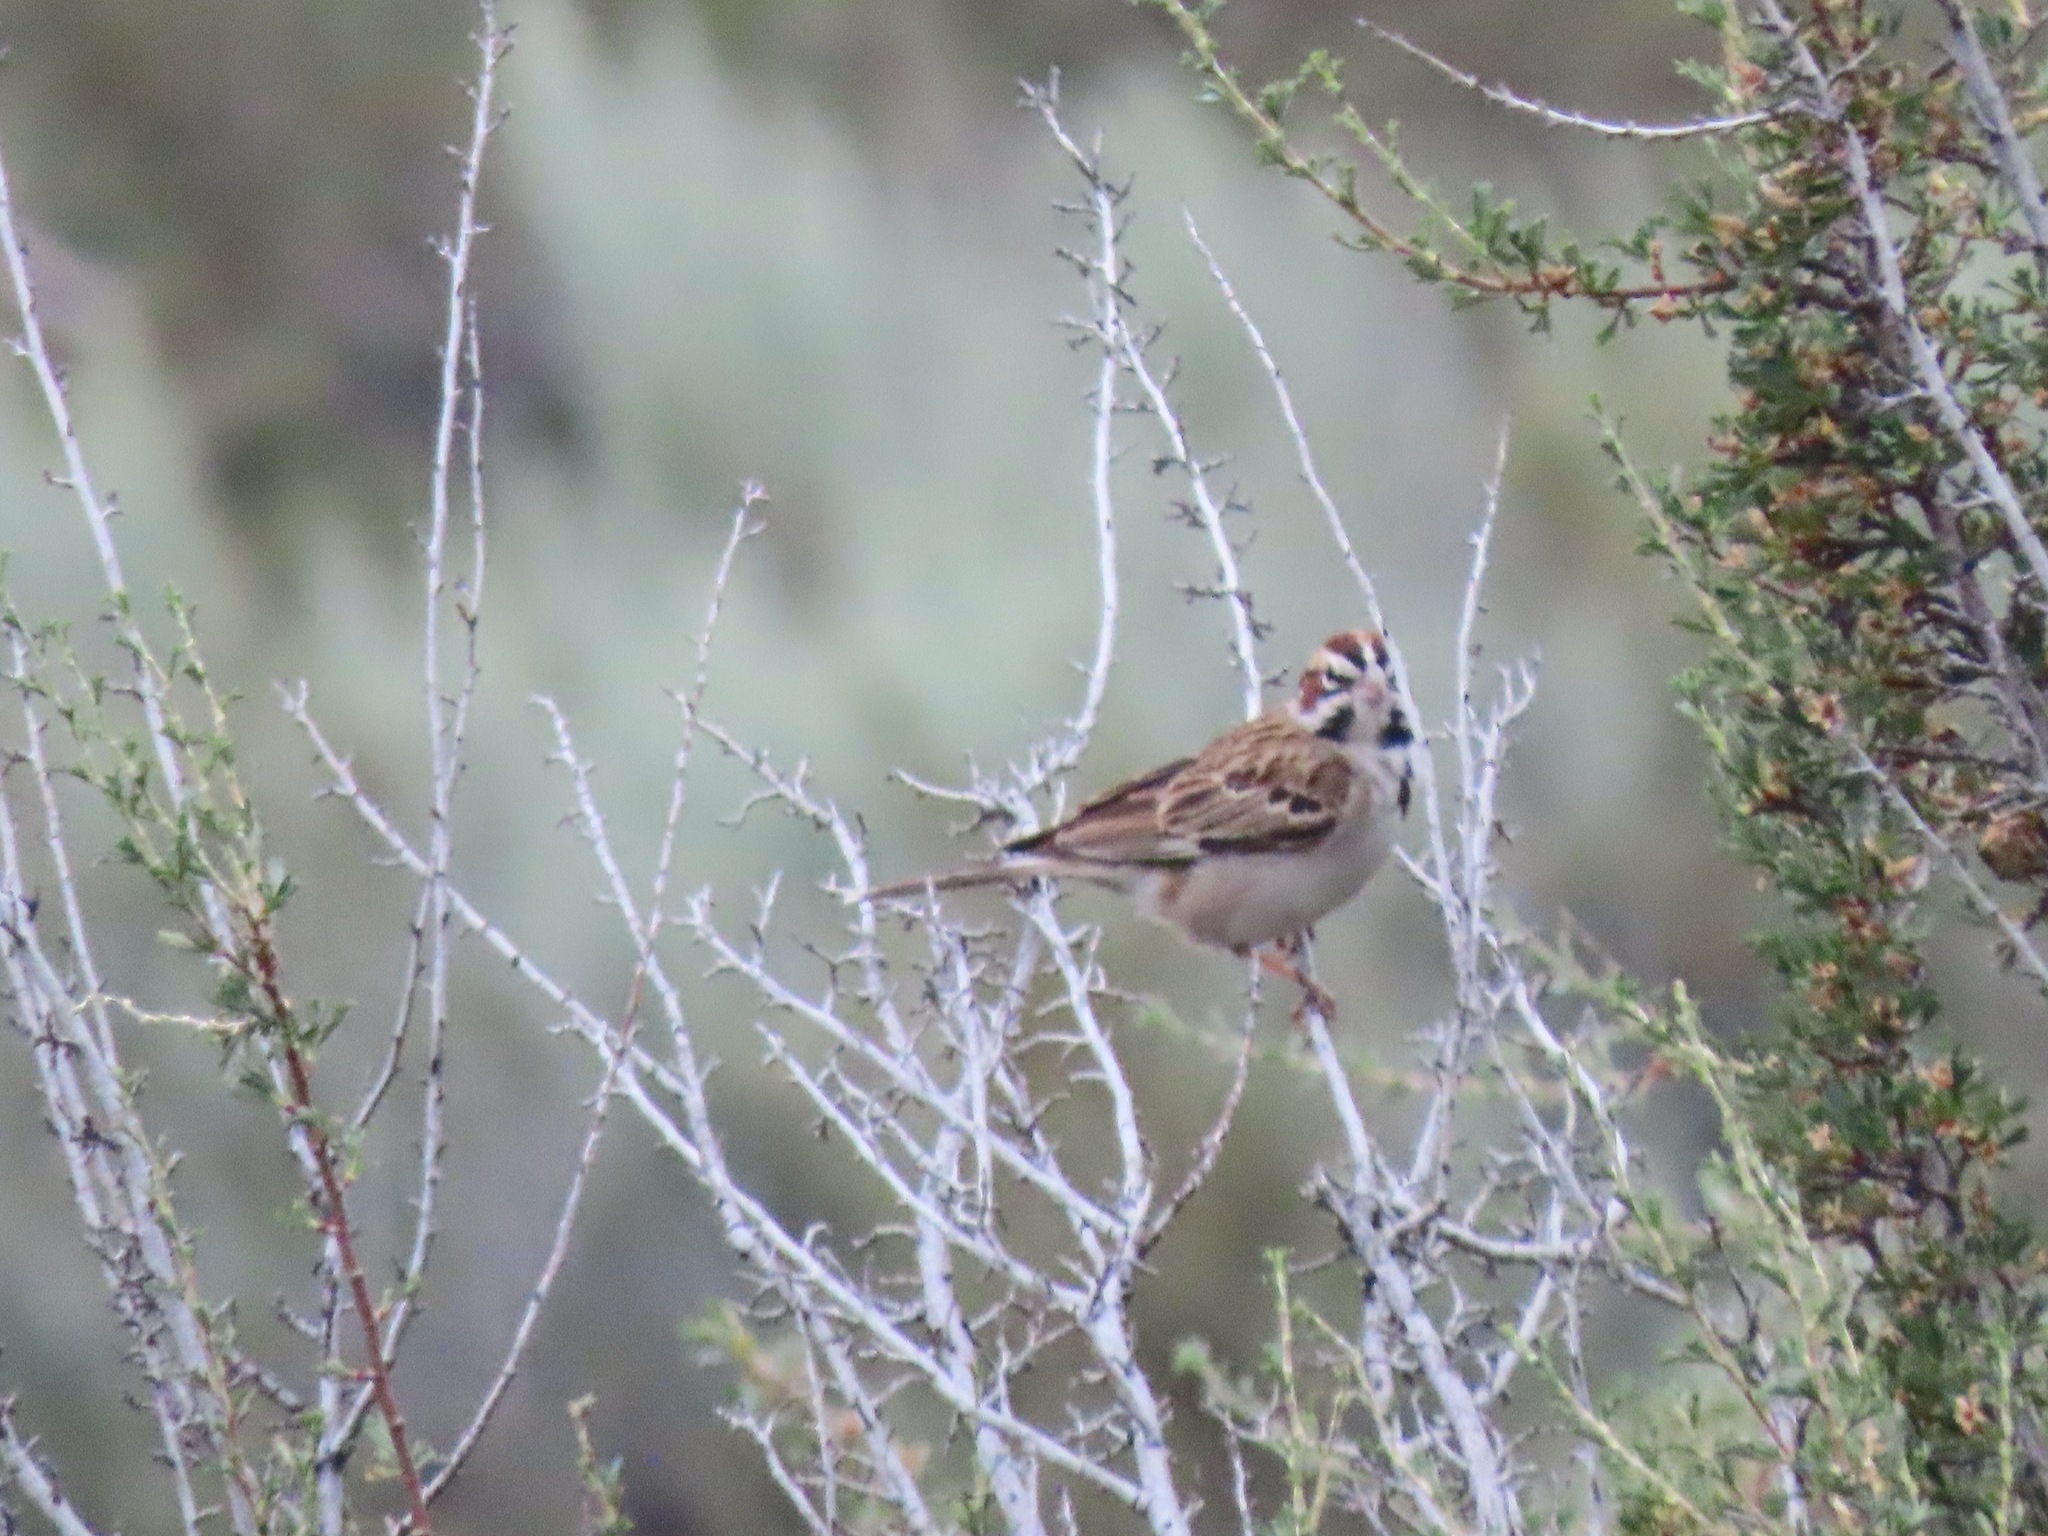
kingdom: Animalia
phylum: Chordata
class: Aves
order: Passeriformes
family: Passerellidae
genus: Chondestes
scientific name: Chondestes grammacus
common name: Lark sparrow
